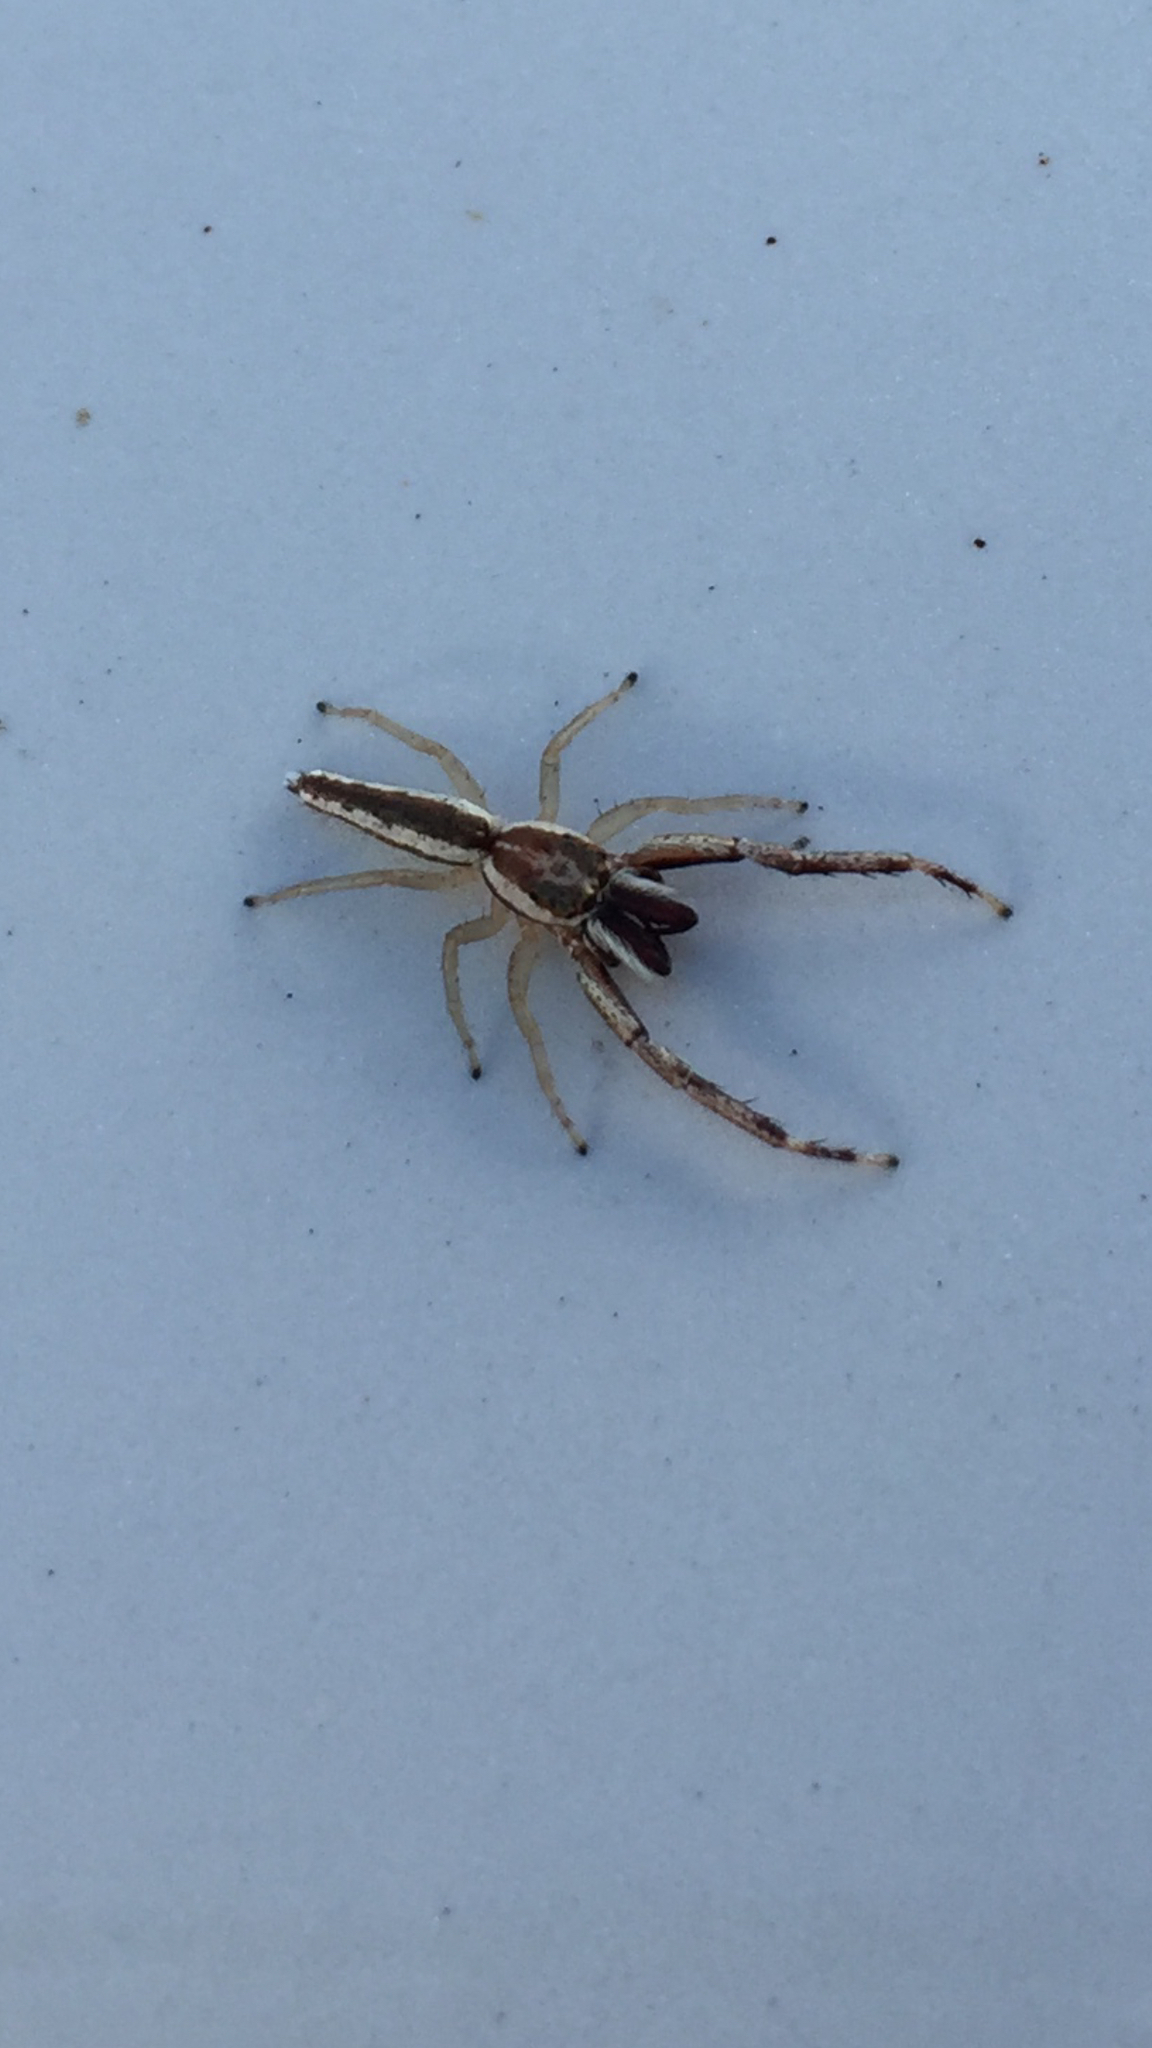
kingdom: Animalia
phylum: Arthropoda
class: Arachnida
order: Araneae
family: Salticidae
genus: Hentzia
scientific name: Hentzia palmarum
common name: Common hentz jumping spider
